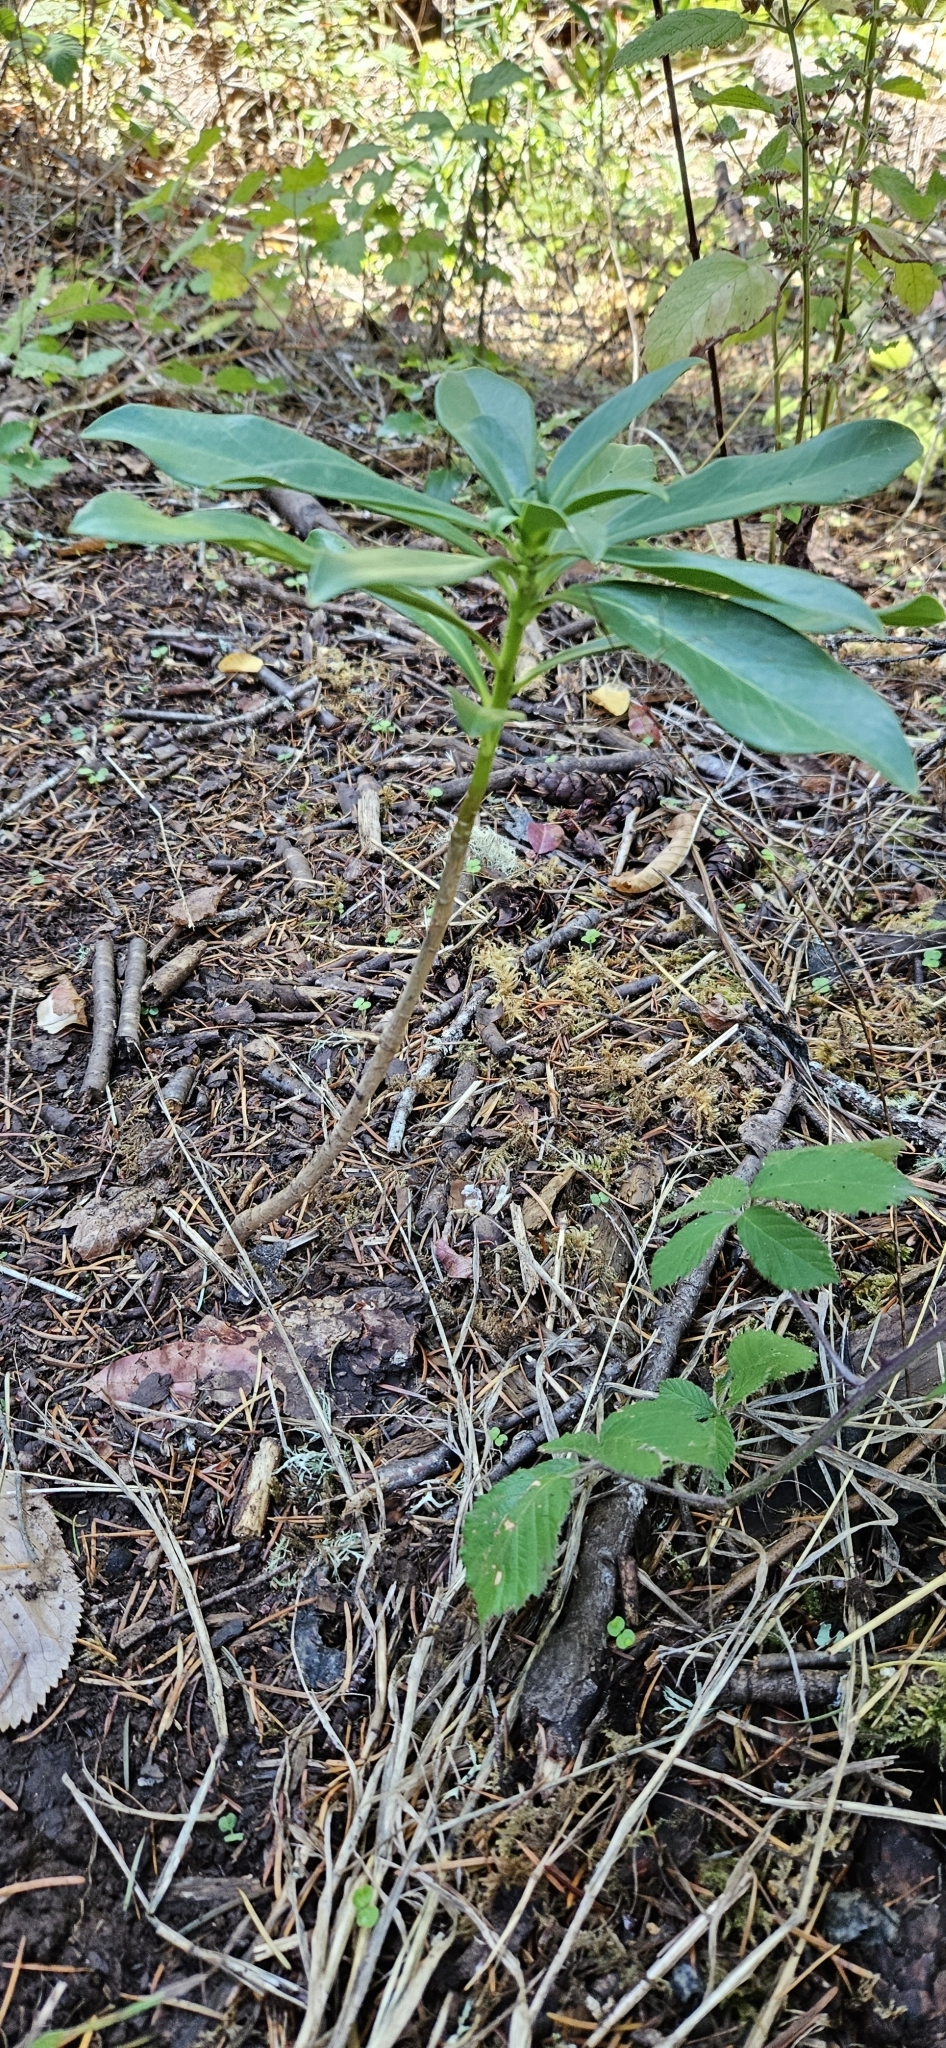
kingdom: Plantae
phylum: Tracheophyta
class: Magnoliopsida
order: Malvales
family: Thymelaeaceae
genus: Daphne
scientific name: Daphne laureola
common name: Spurge-laurel
